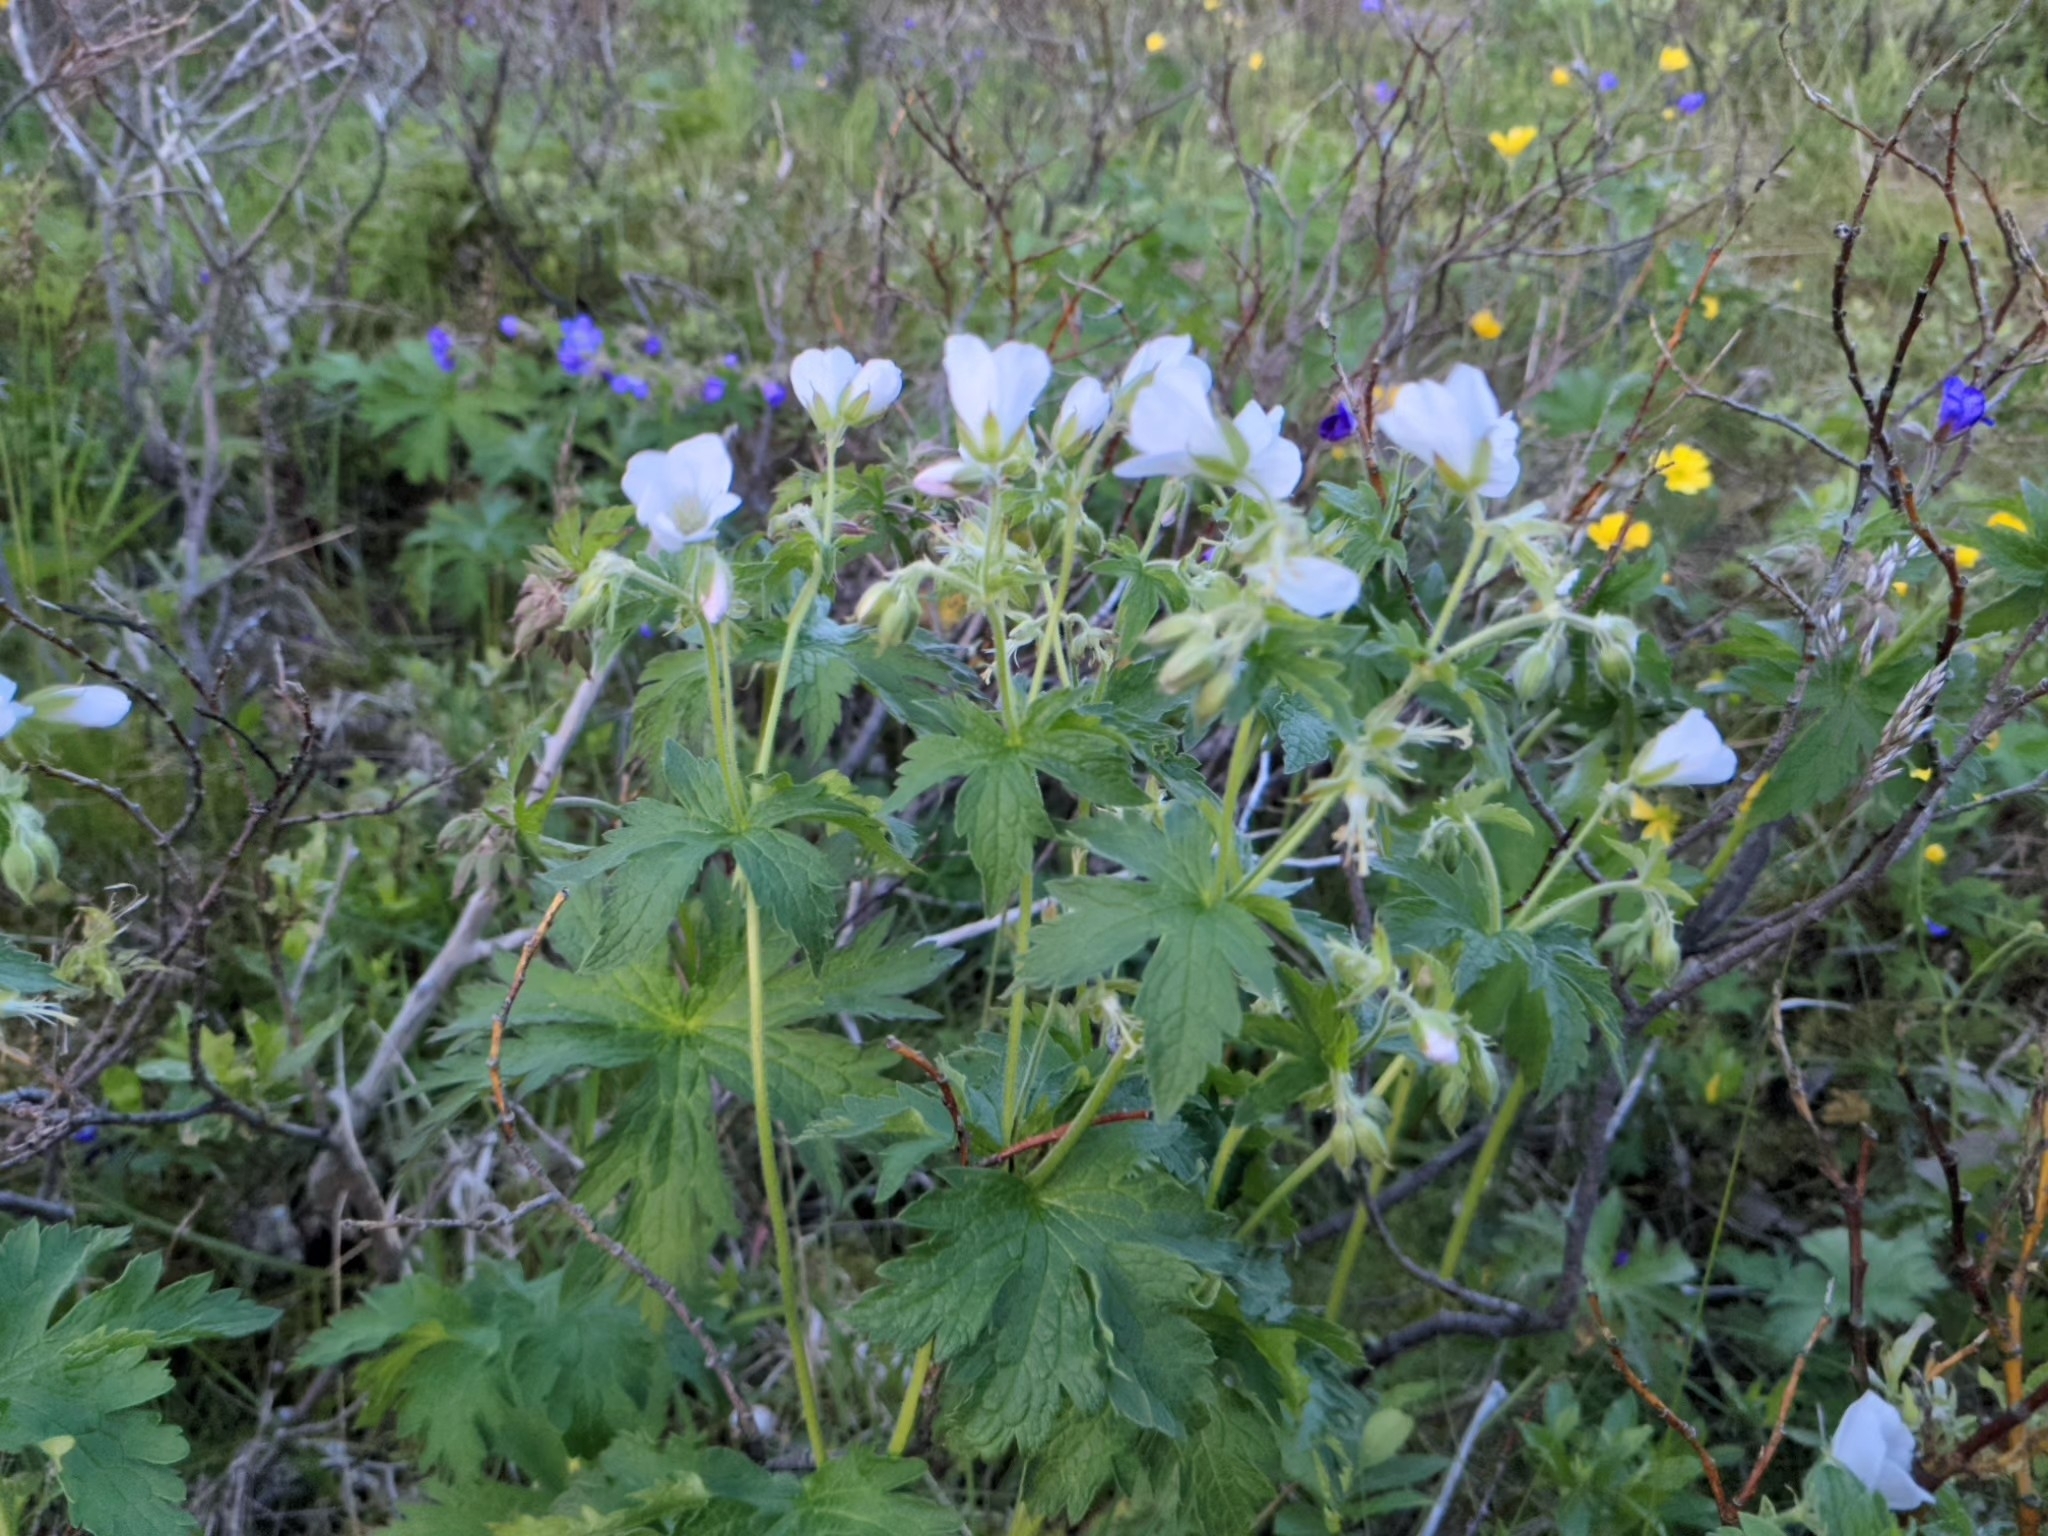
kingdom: Plantae
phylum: Tracheophyta
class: Magnoliopsida
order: Geraniales
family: Geraniaceae
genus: Geranium
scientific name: Geranium sylvaticum
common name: Wood crane's-bill
